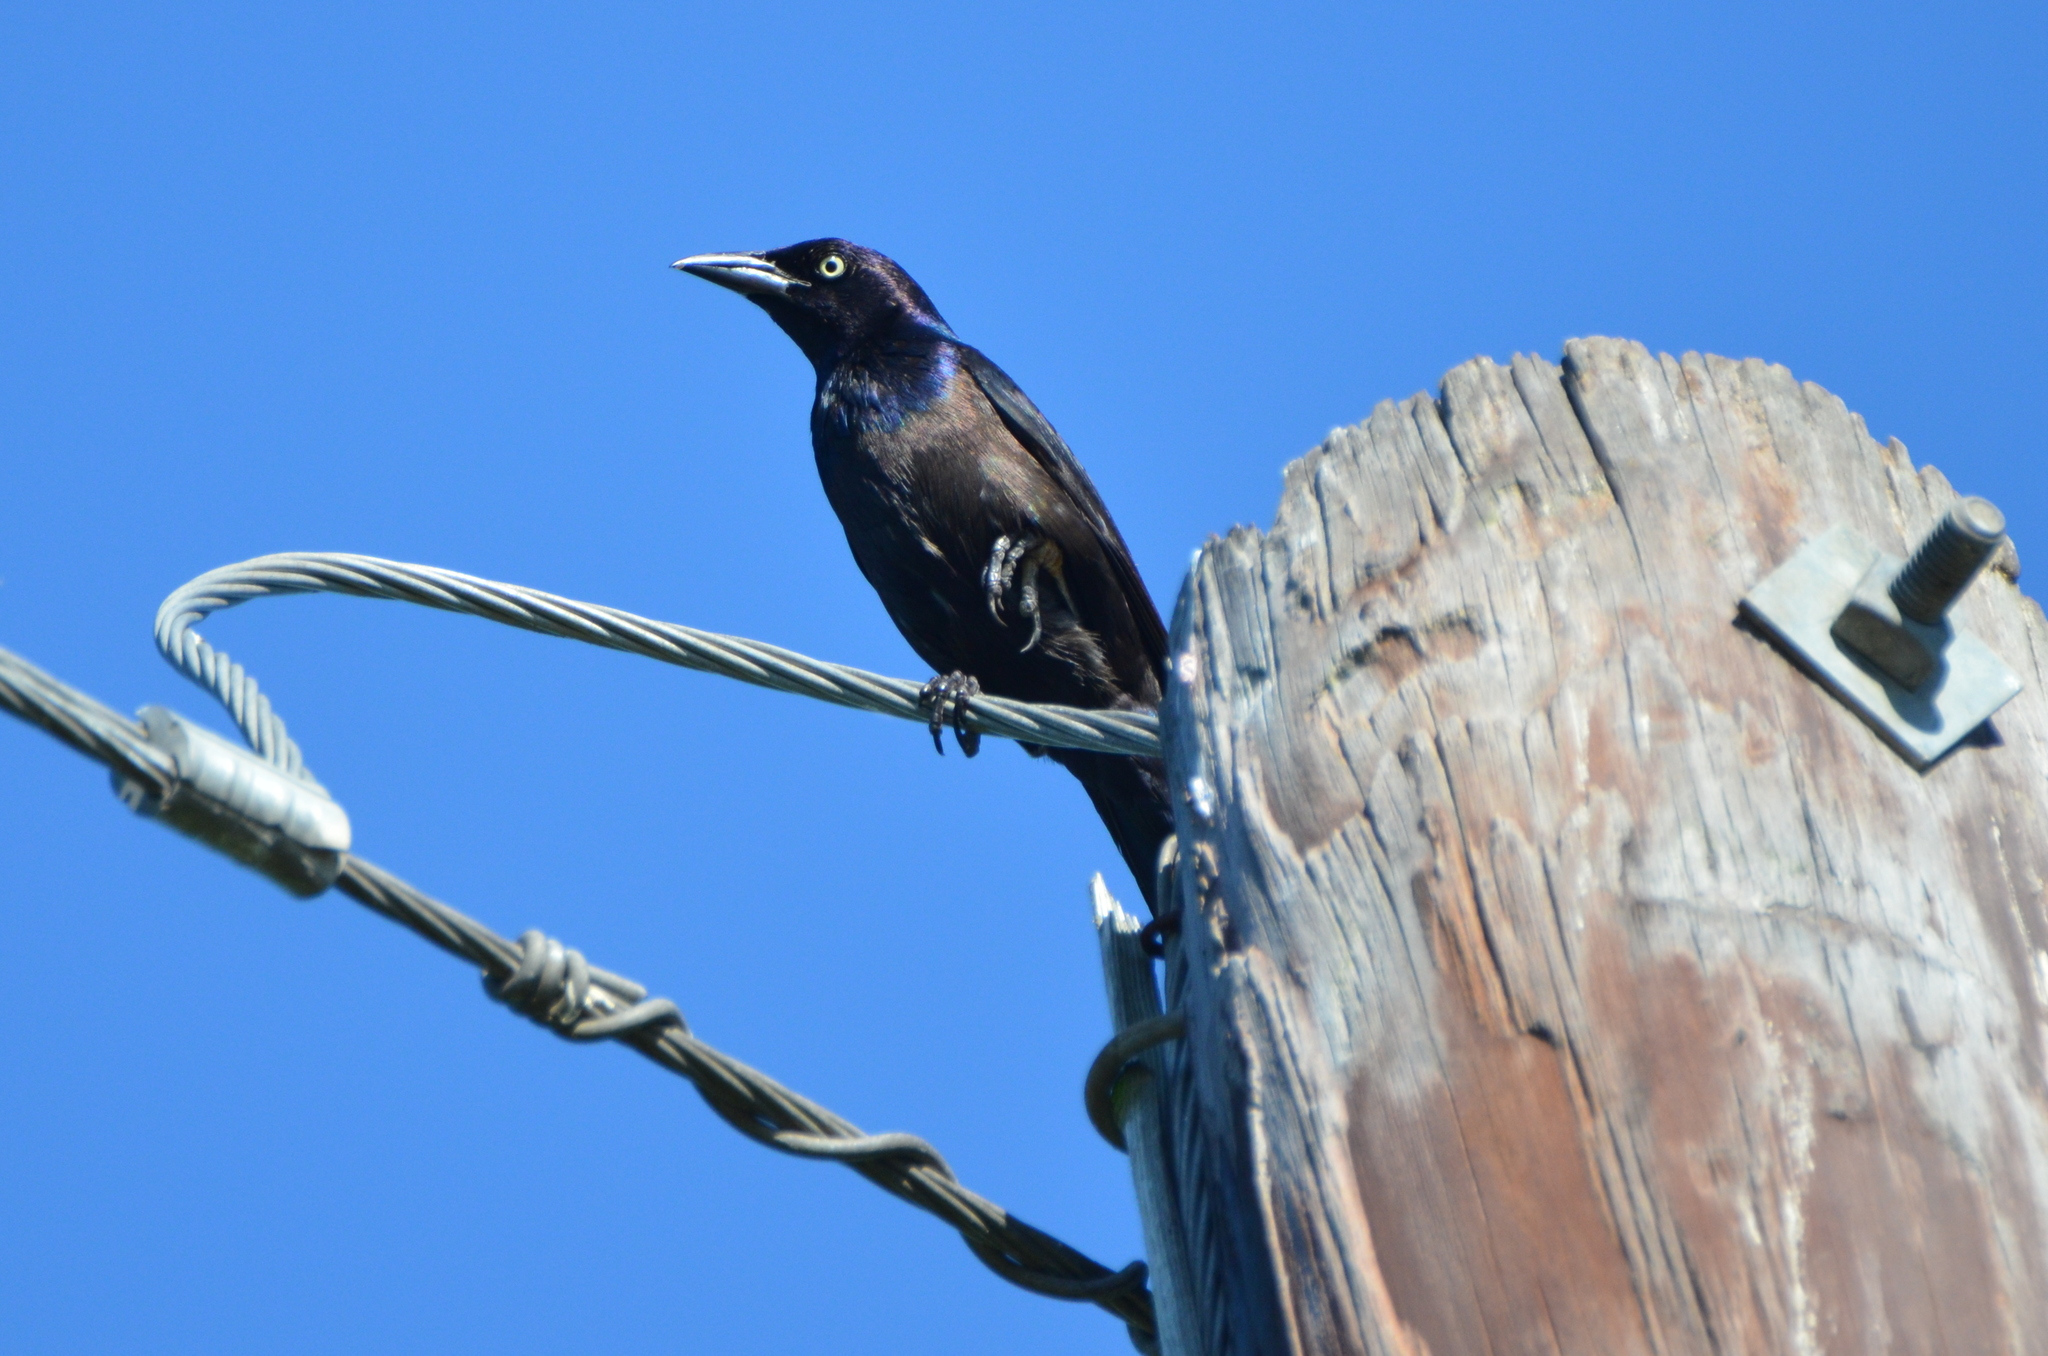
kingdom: Animalia
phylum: Chordata
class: Aves
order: Passeriformes
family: Icteridae
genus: Quiscalus
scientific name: Quiscalus quiscula
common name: Common grackle
